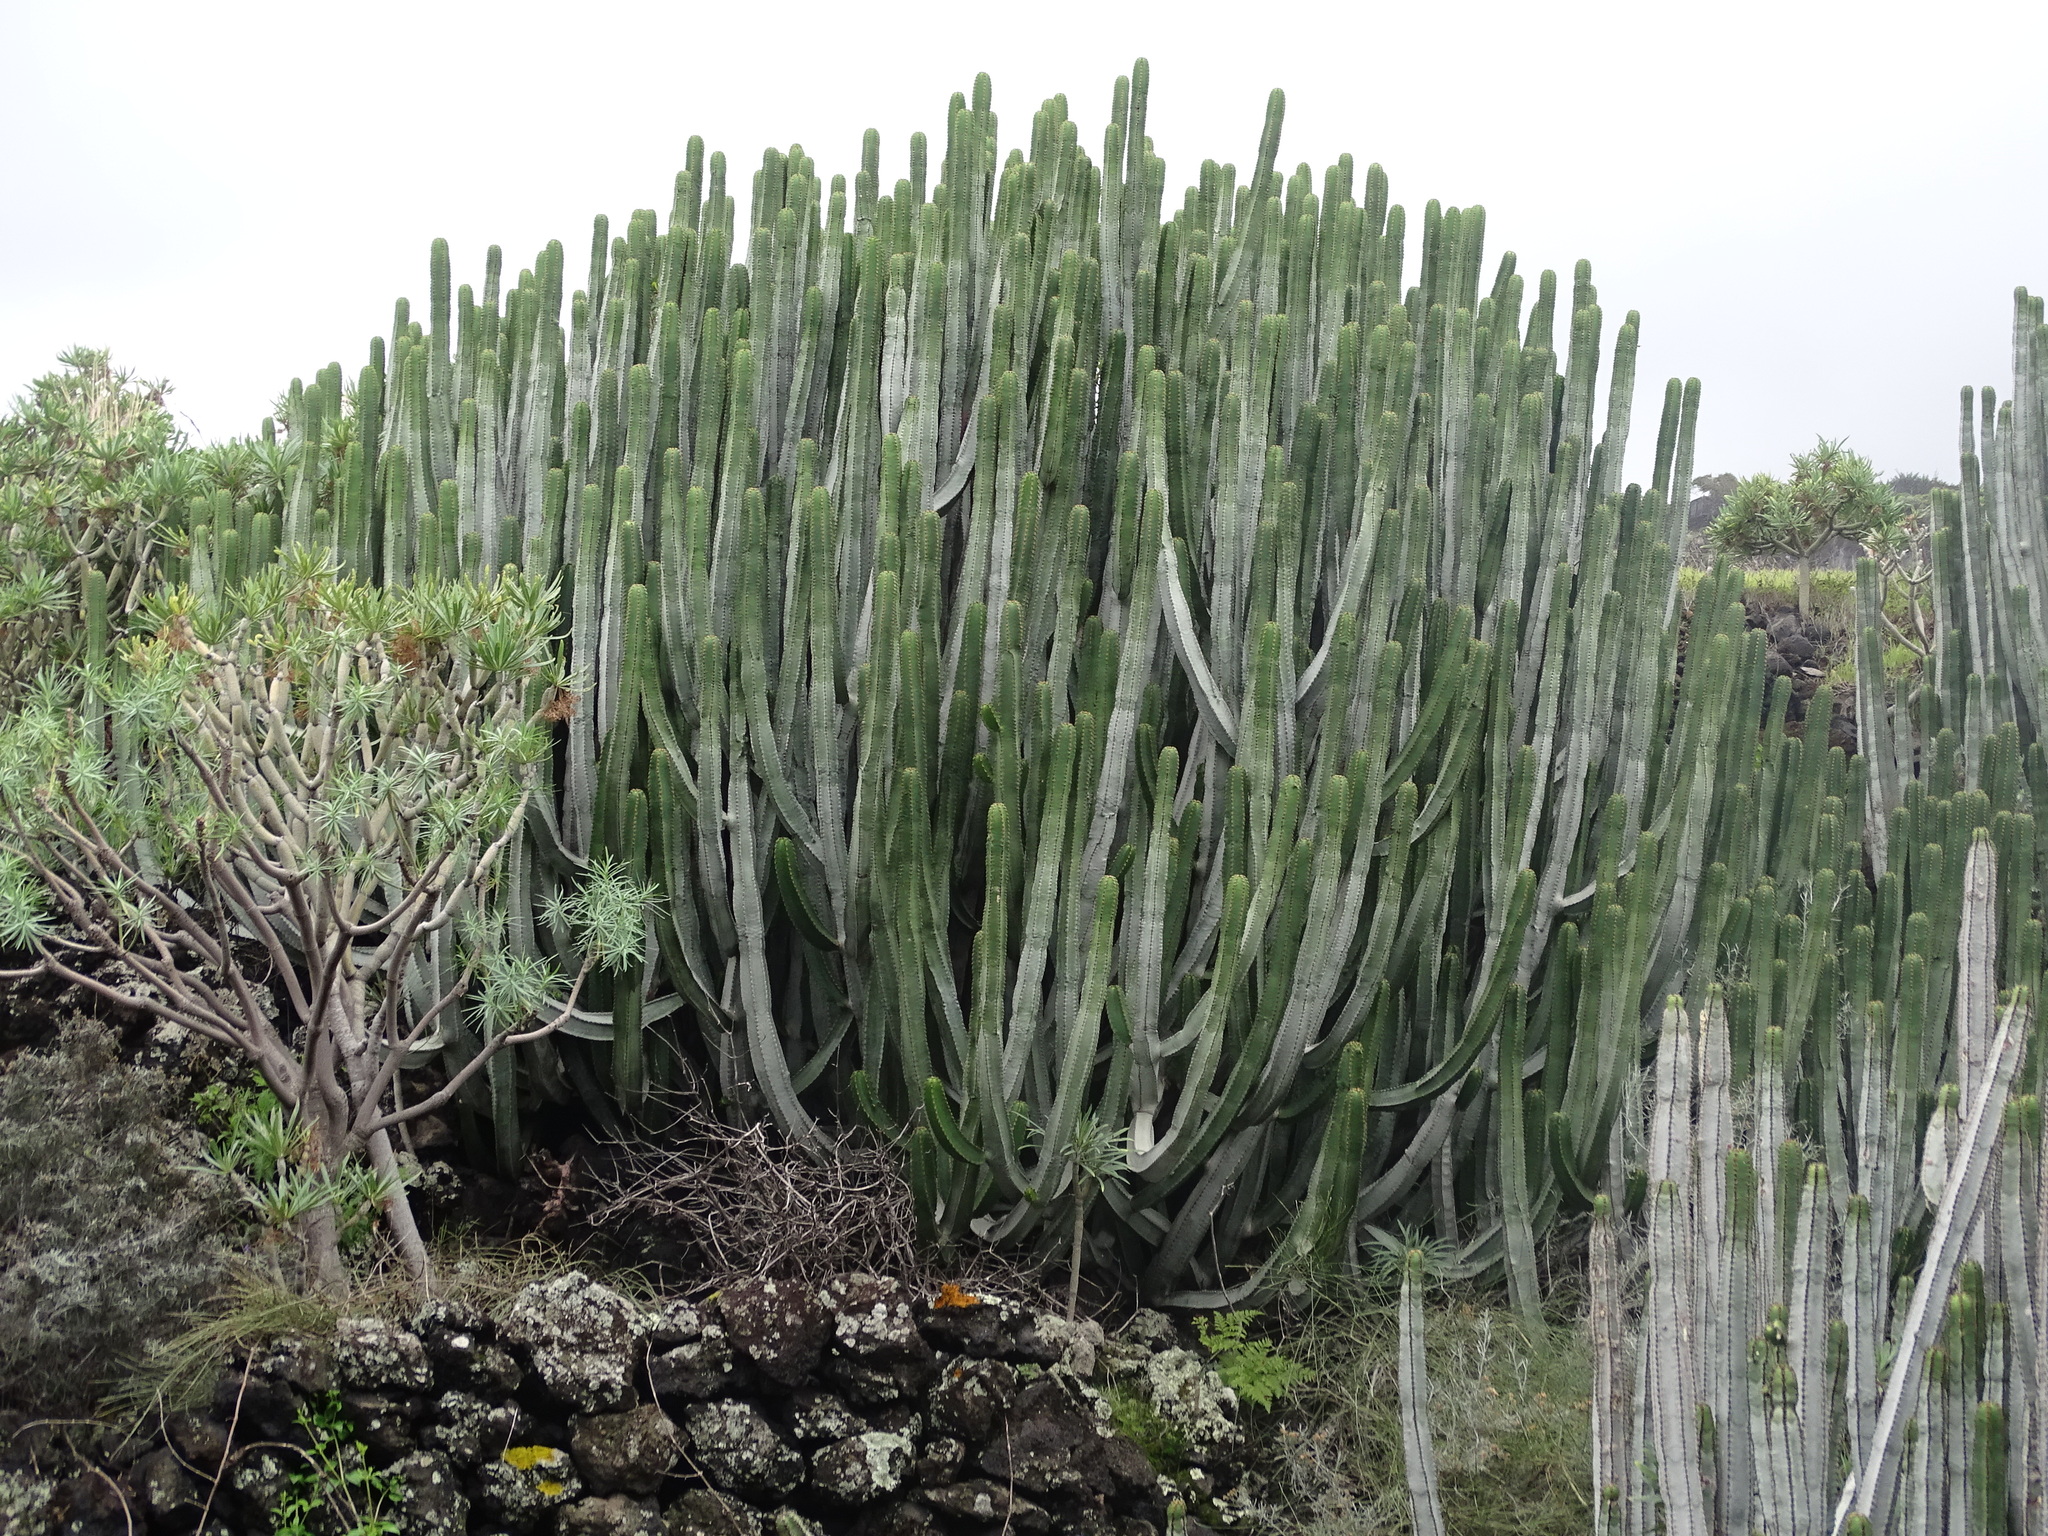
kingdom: Plantae
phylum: Tracheophyta
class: Magnoliopsida
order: Malpighiales
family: Euphorbiaceae
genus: Euphorbia
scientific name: Euphorbia canariensis
